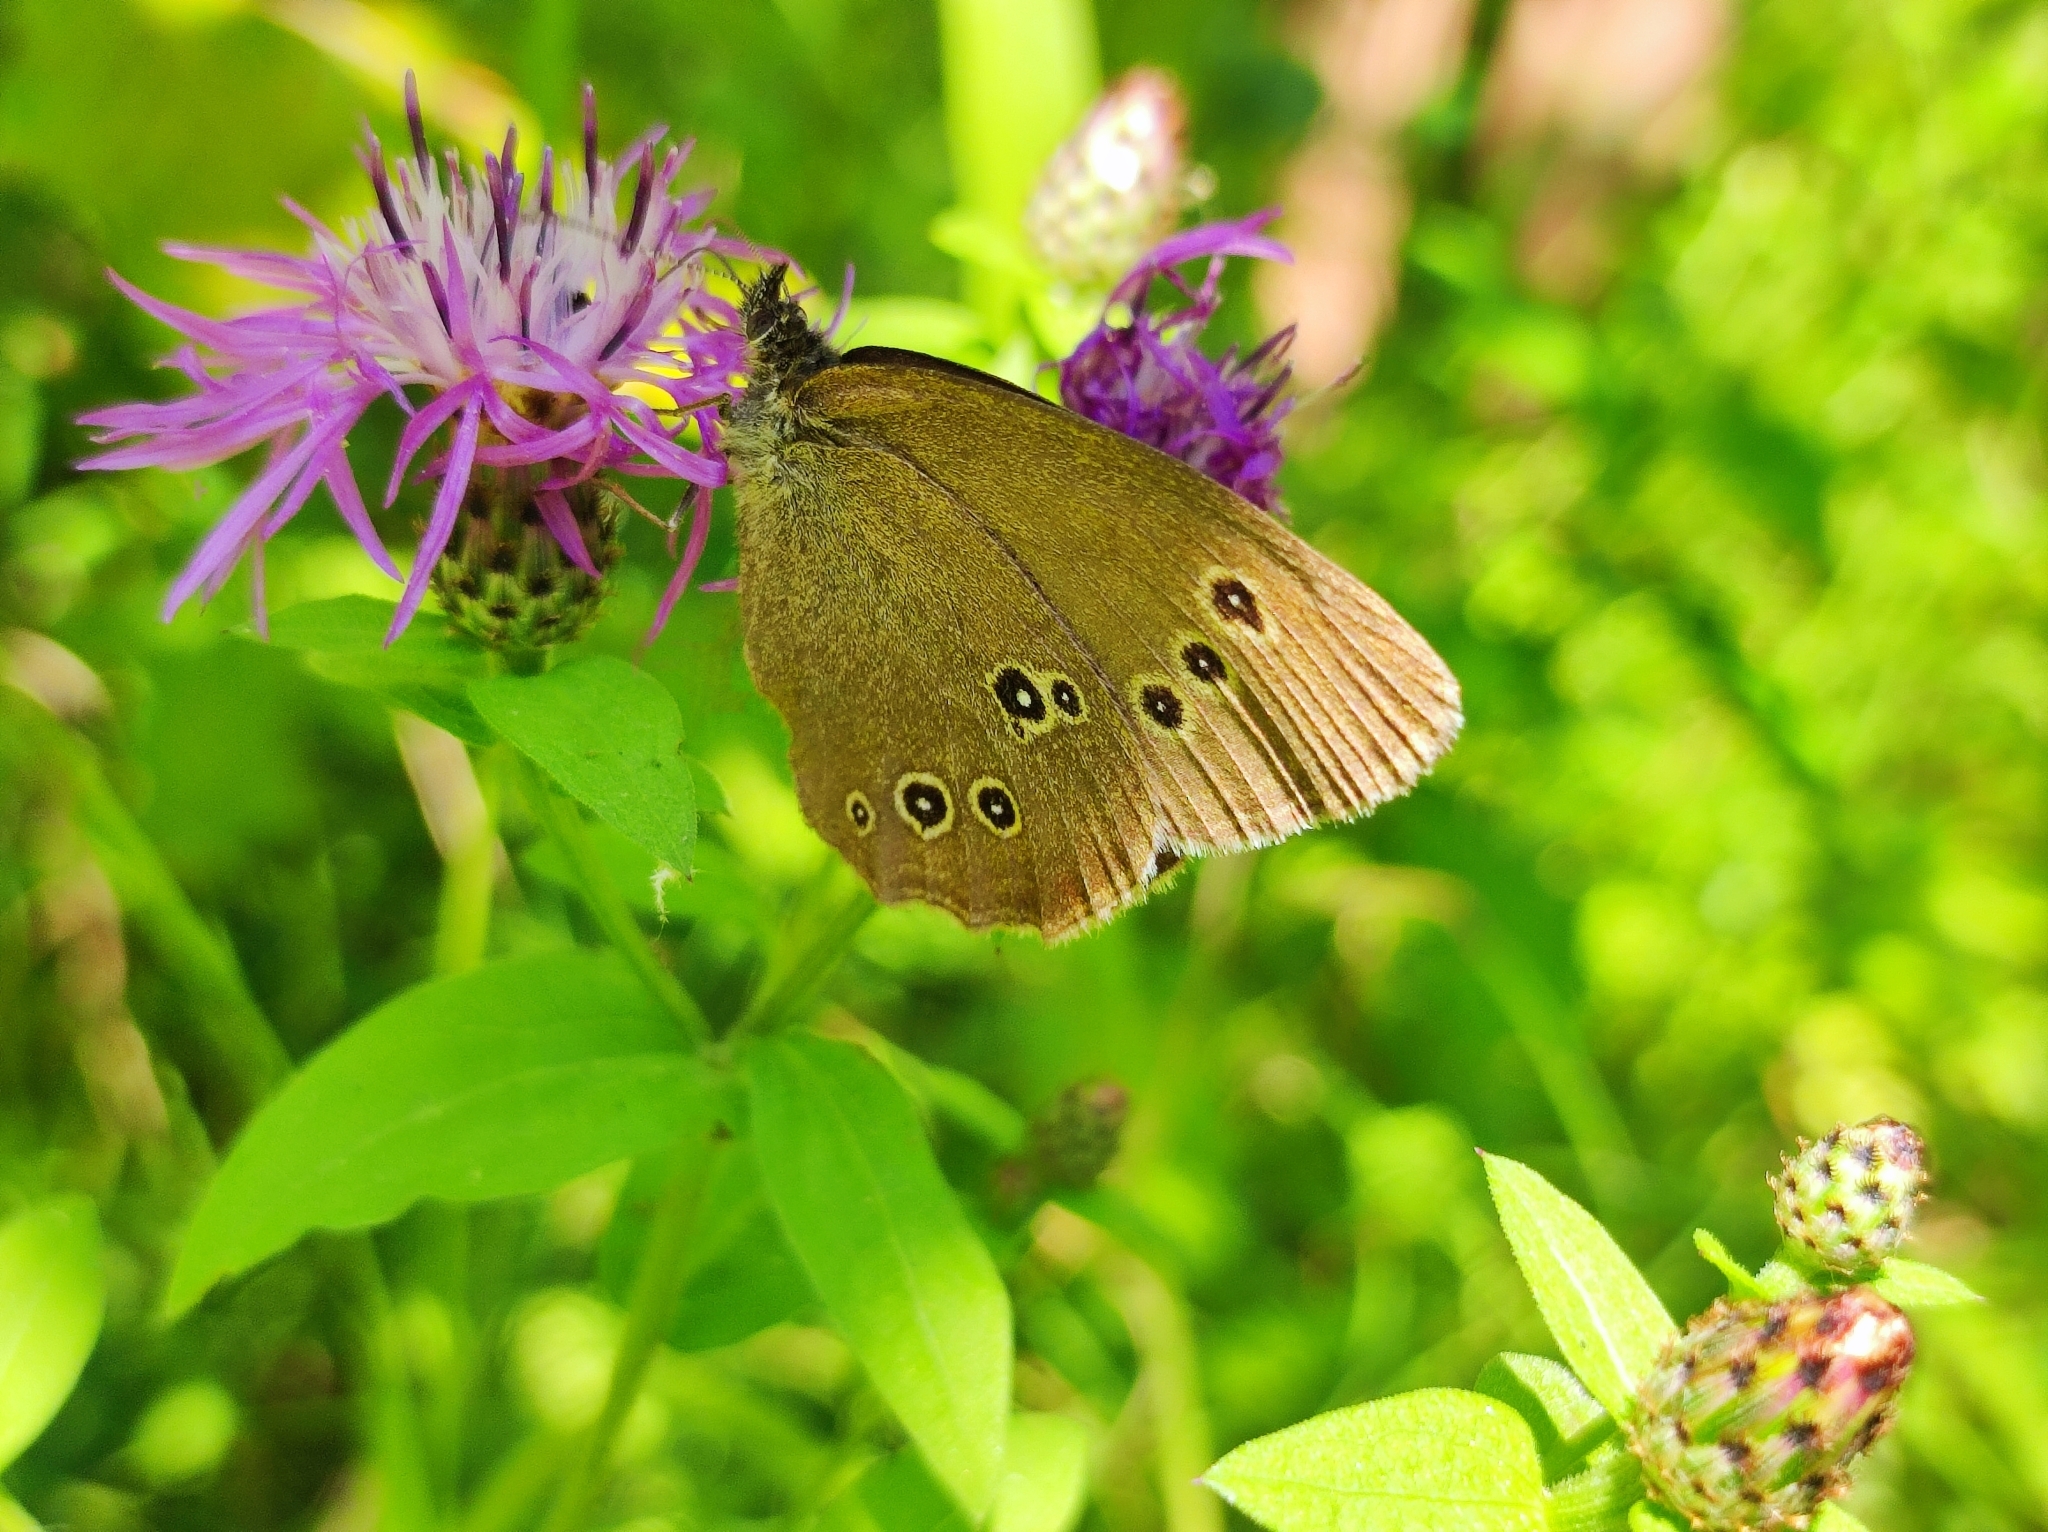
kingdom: Animalia
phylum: Arthropoda
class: Insecta
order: Lepidoptera
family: Nymphalidae
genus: Aphantopus
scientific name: Aphantopus hyperantus
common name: Ringlet
